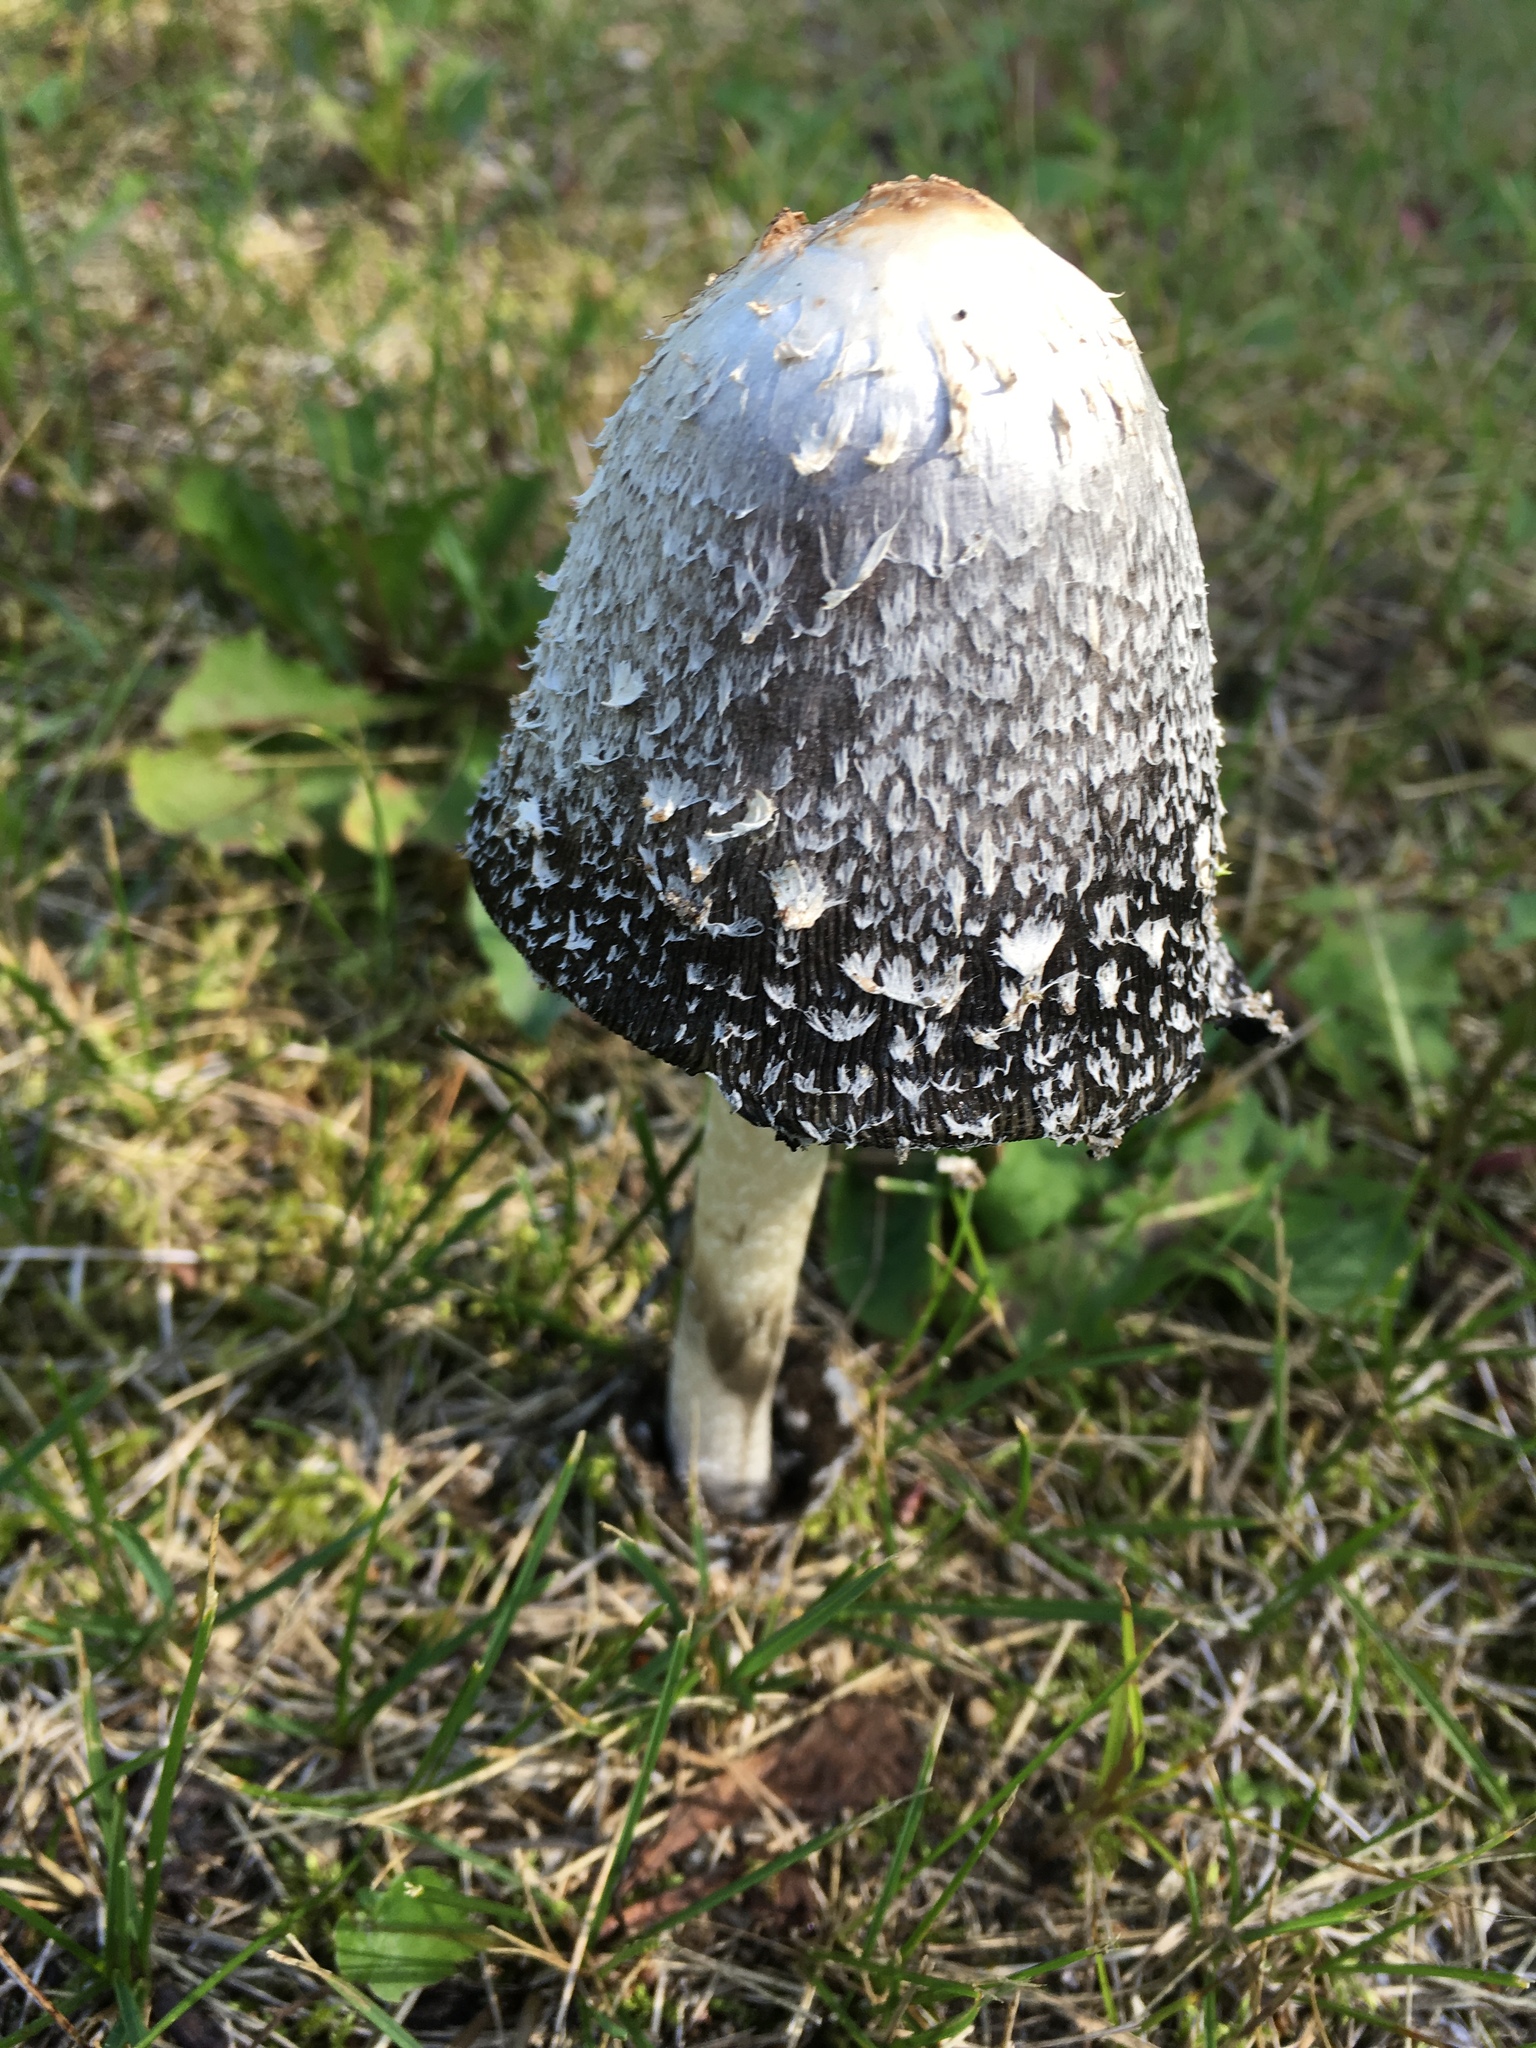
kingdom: Fungi
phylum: Basidiomycota
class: Agaricomycetes
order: Agaricales
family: Agaricaceae
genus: Coprinus
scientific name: Coprinus comatus
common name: Lawyer's wig
